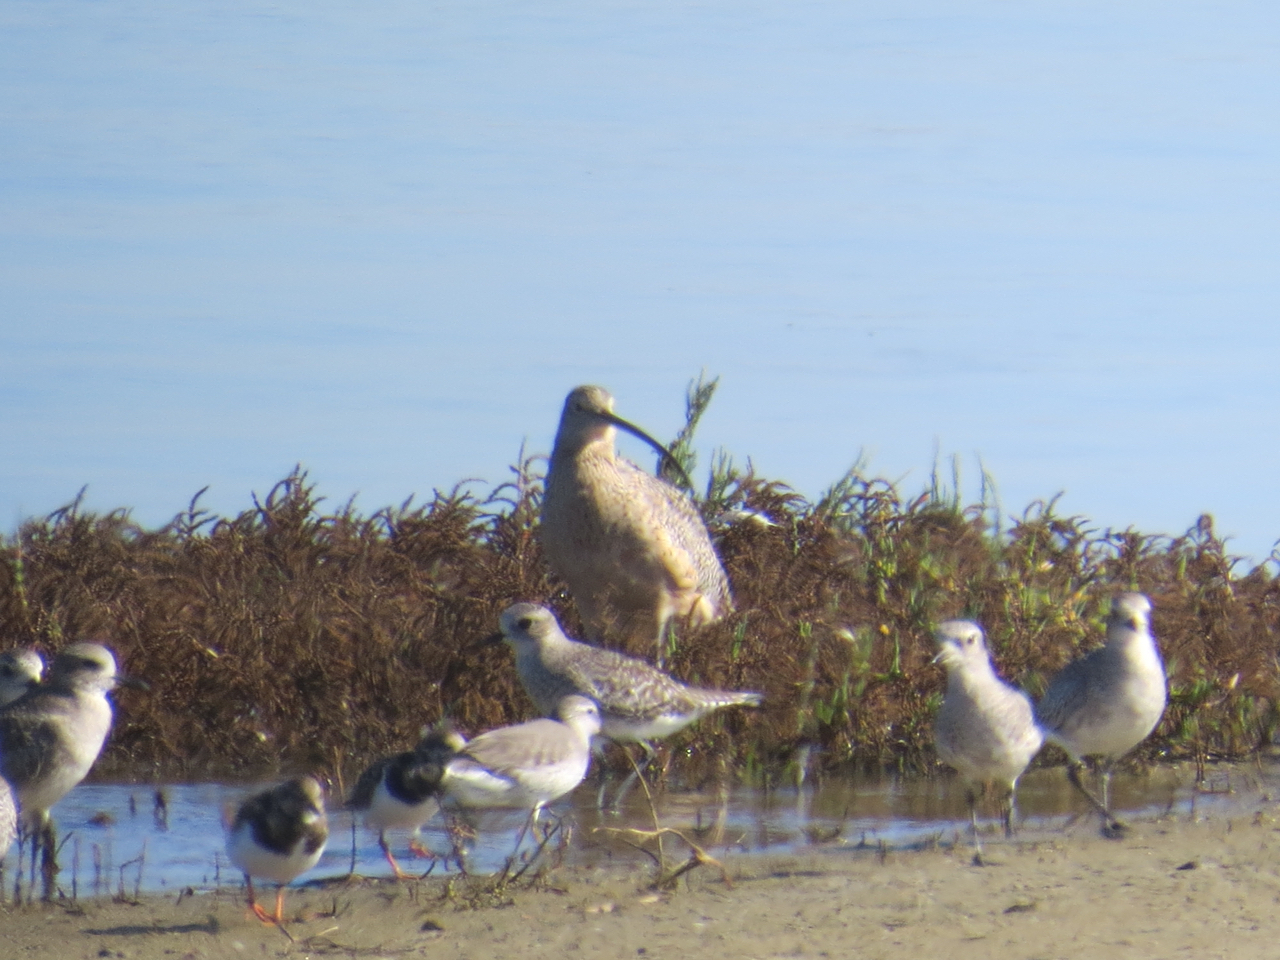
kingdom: Animalia
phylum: Chordata
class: Aves
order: Charadriiformes
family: Scolopacidae
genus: Arenaria
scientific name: Arenaria interpres
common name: Ruddy turnstone
